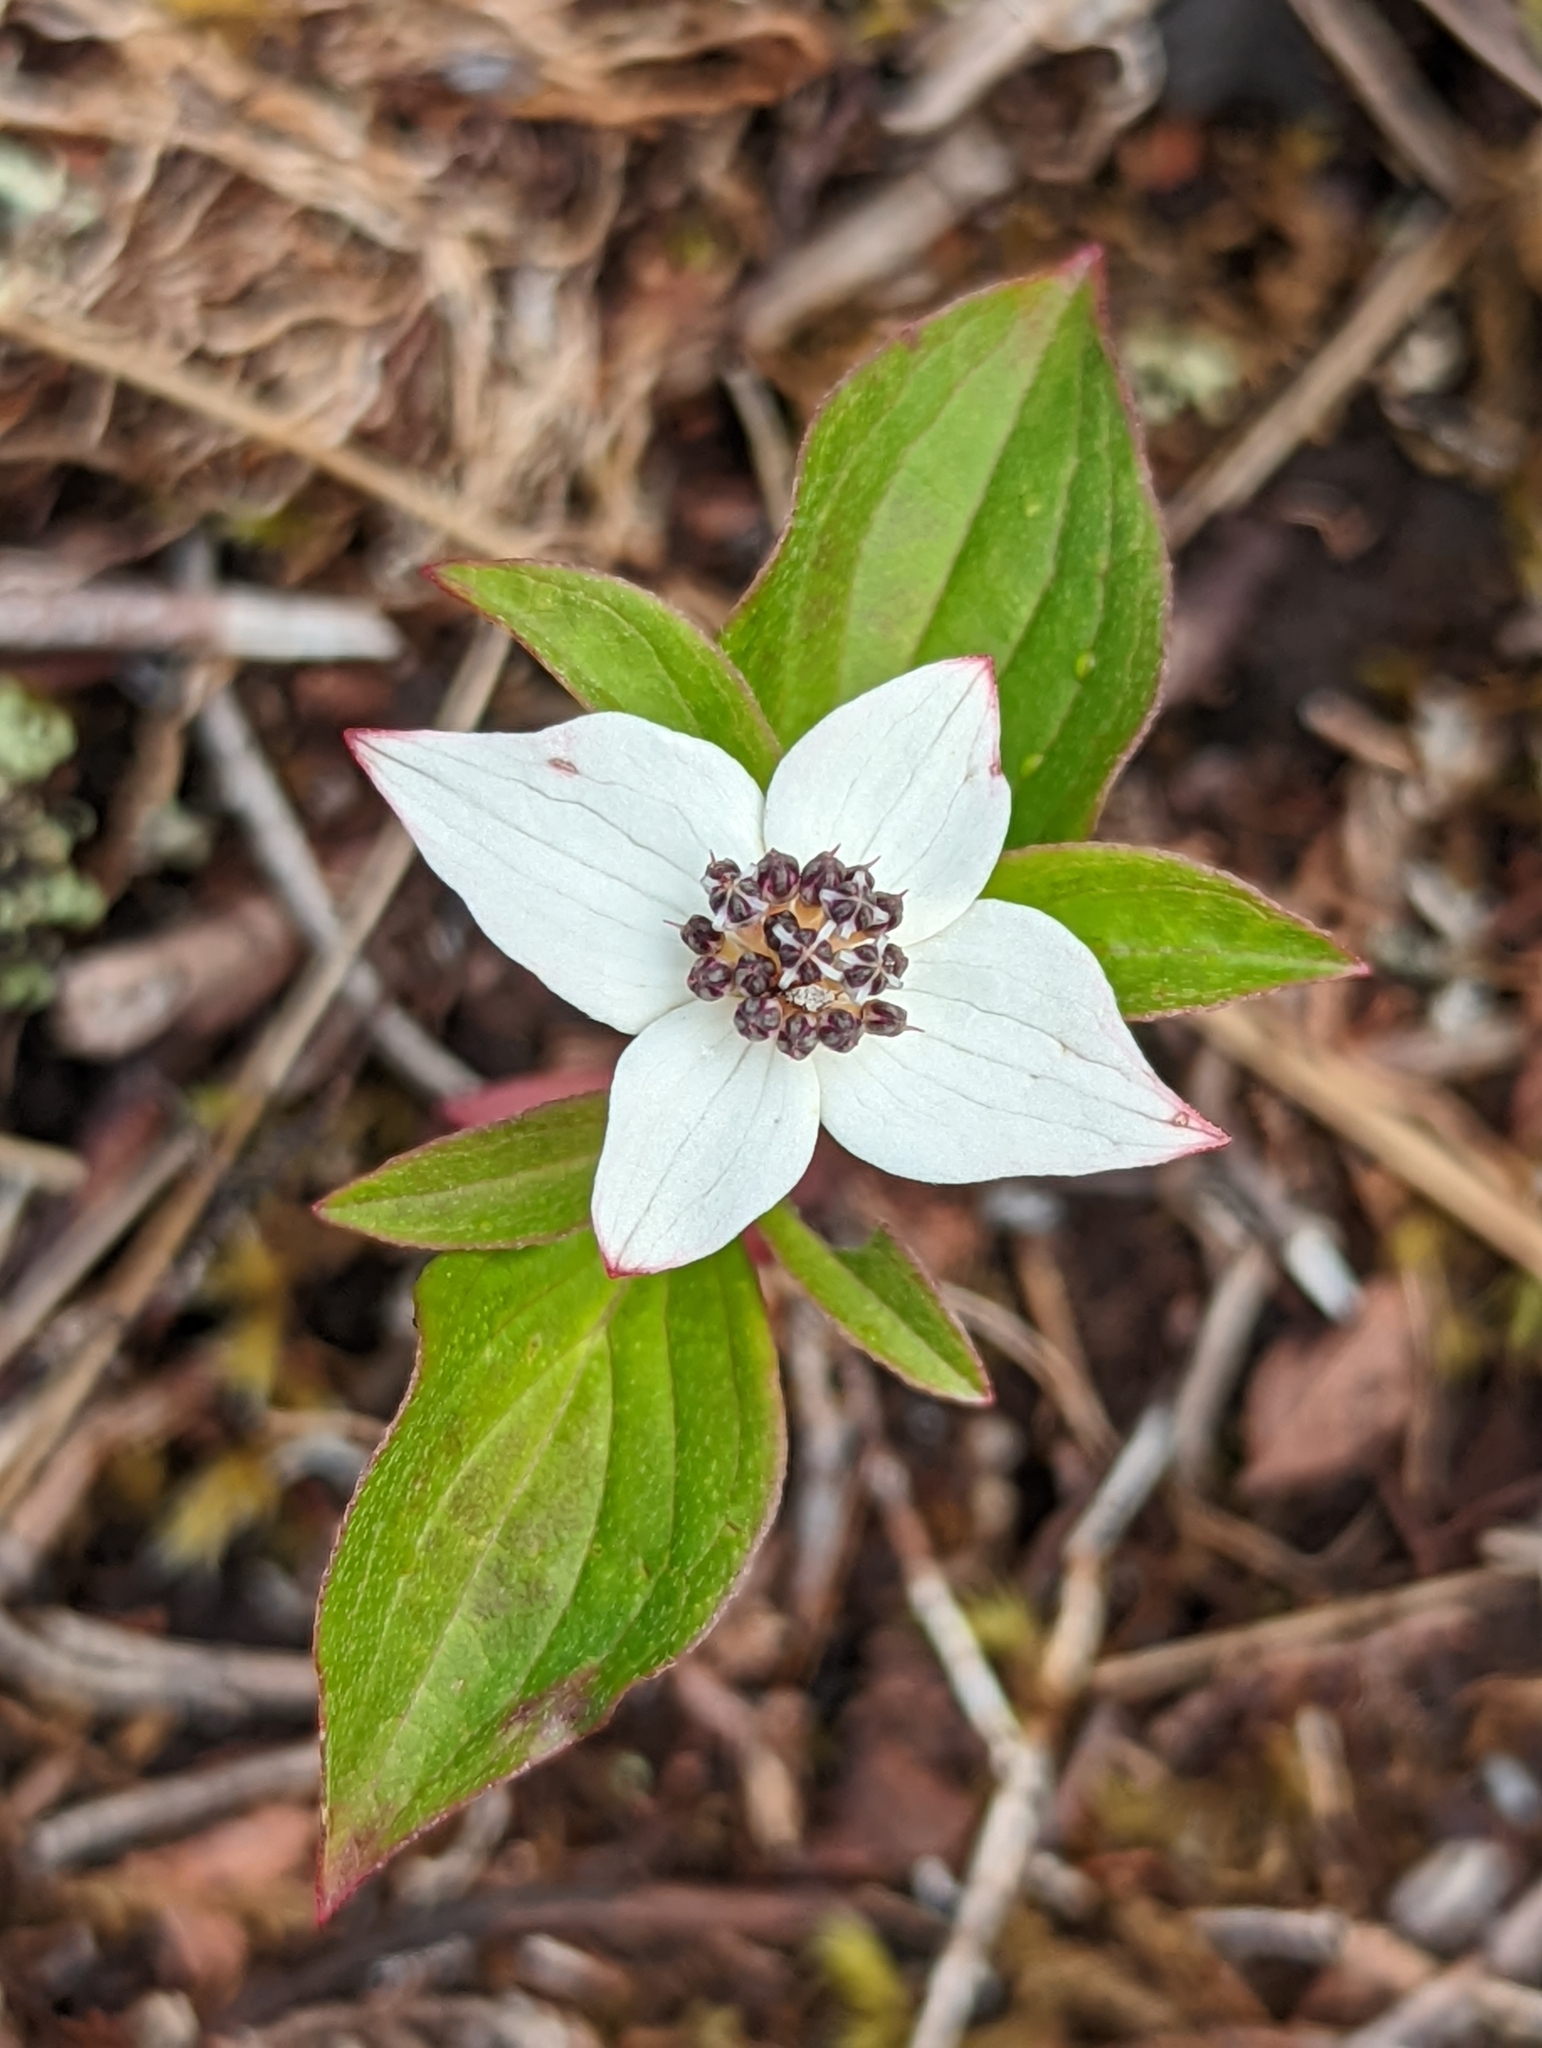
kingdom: Plantae
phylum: Tracheophyta
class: Magnoliopsida
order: Cornales
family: Cornaceae
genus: Cornus
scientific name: Cornus unalaschkensis
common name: Alaska bunchberry
